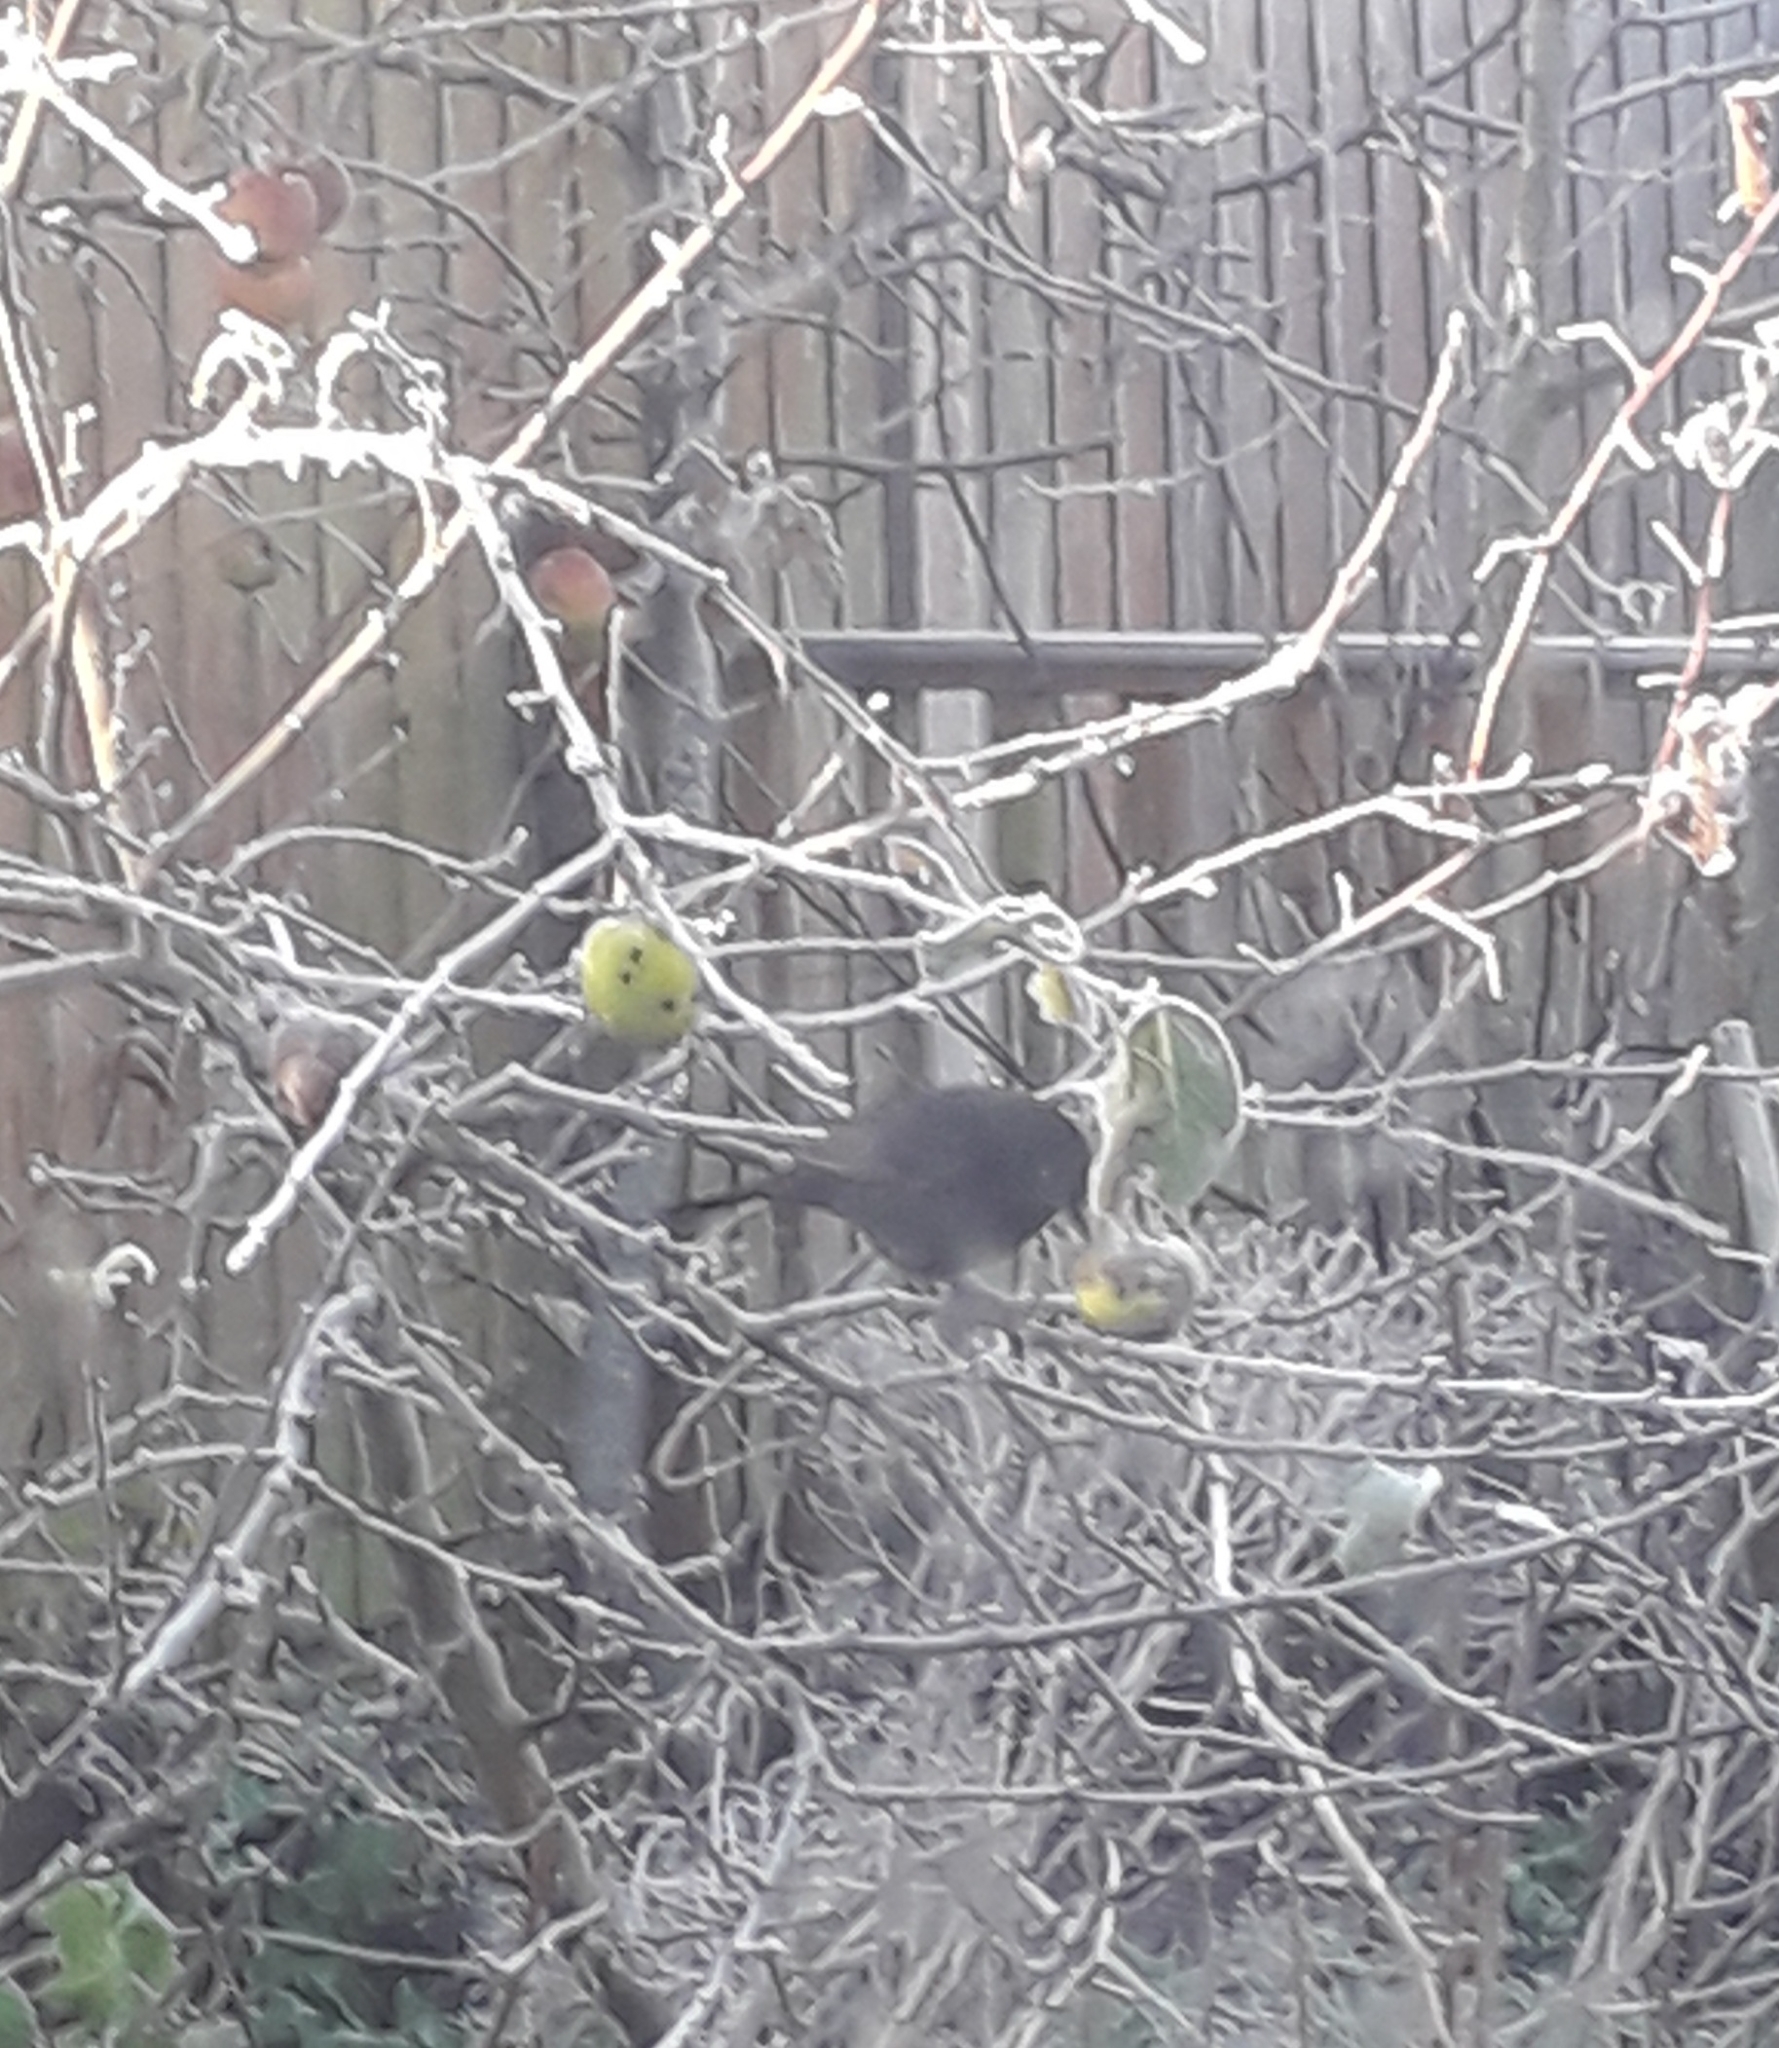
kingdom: Animalia
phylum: Chordata
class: Aves
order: Passeriformes
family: Turdidae
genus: Turdus
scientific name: Turdus merula
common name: Common blackbird
